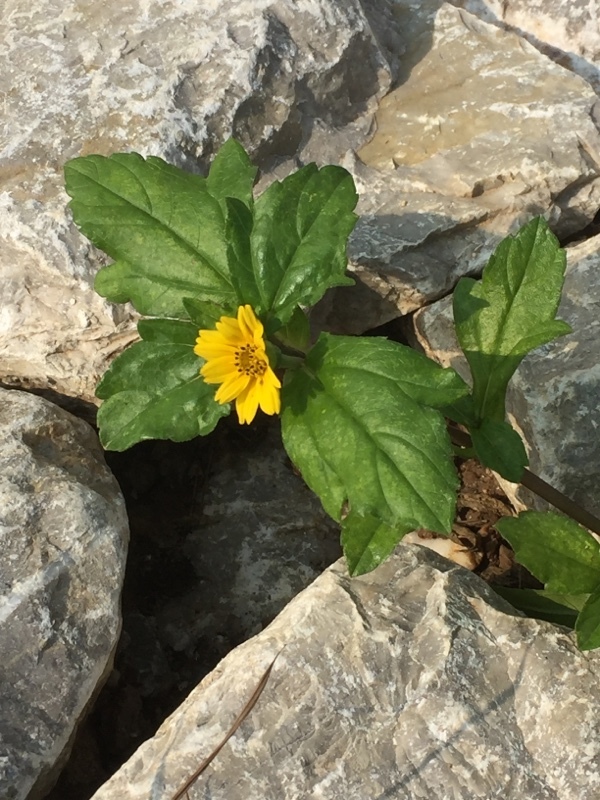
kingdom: Plantae
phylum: Tracheophyta
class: Magnoliopsida
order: Asterales
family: Asteraceae
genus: Sphagneticola
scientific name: Sphagneticola trilobata
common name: Bay biscayne creeping-oxeye
